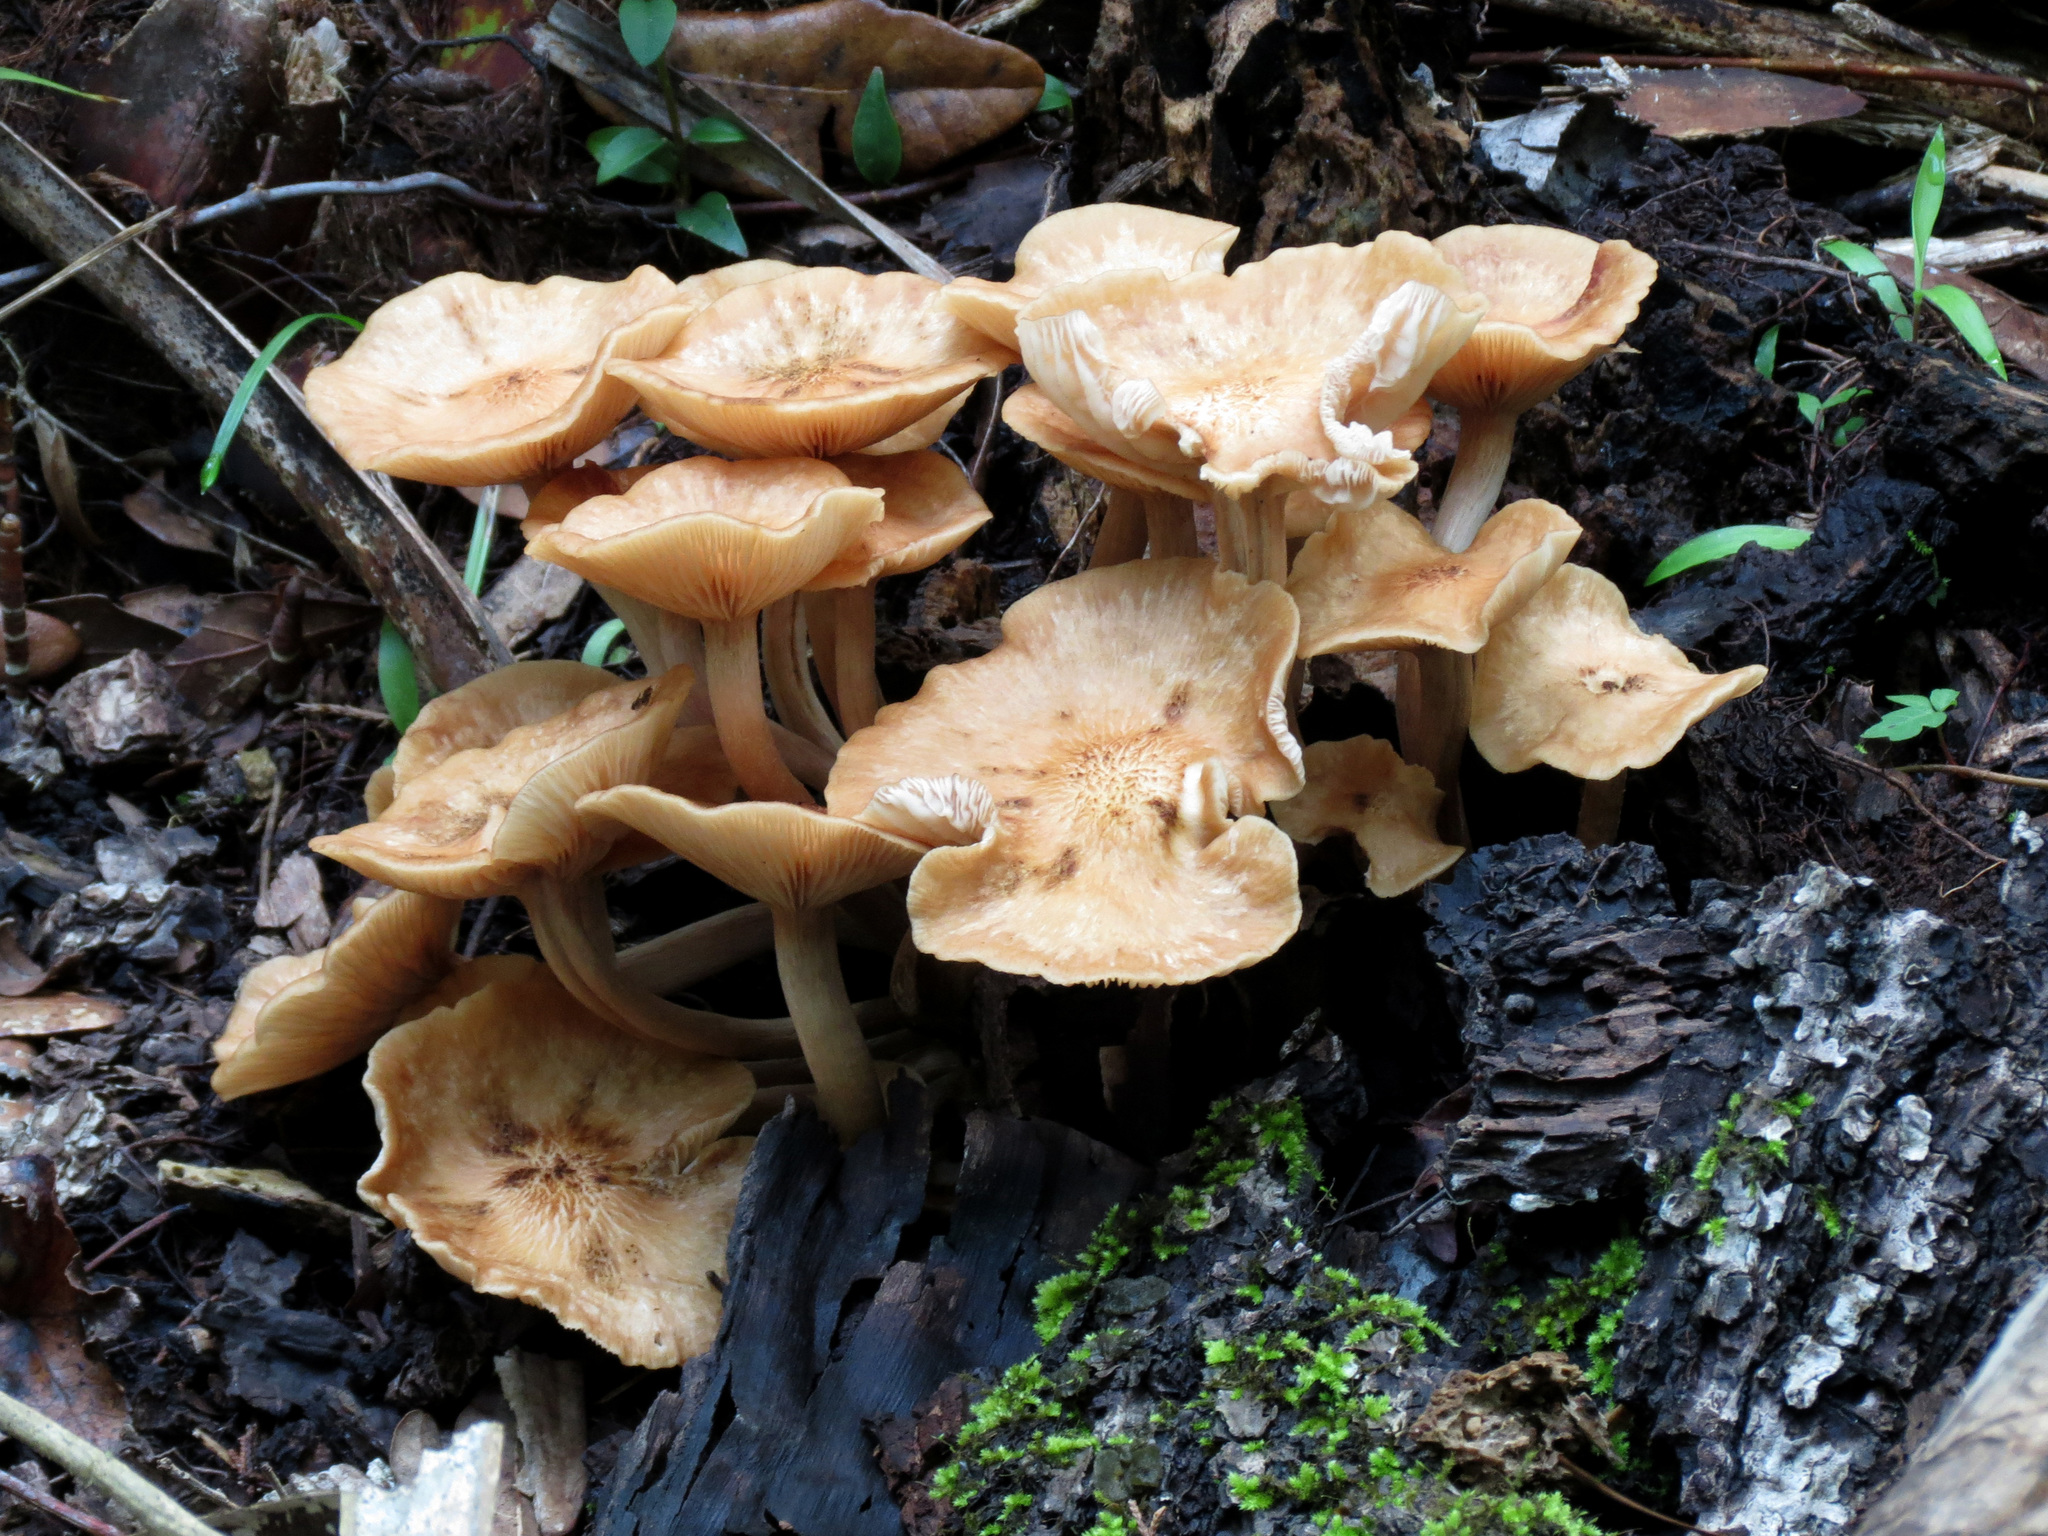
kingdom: Fungi
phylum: Basidiomycota
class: Agaricomycetes
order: Agaricales
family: Physalacriaceae
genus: Desarmillaria
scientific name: Desarmillaria caespitosa
